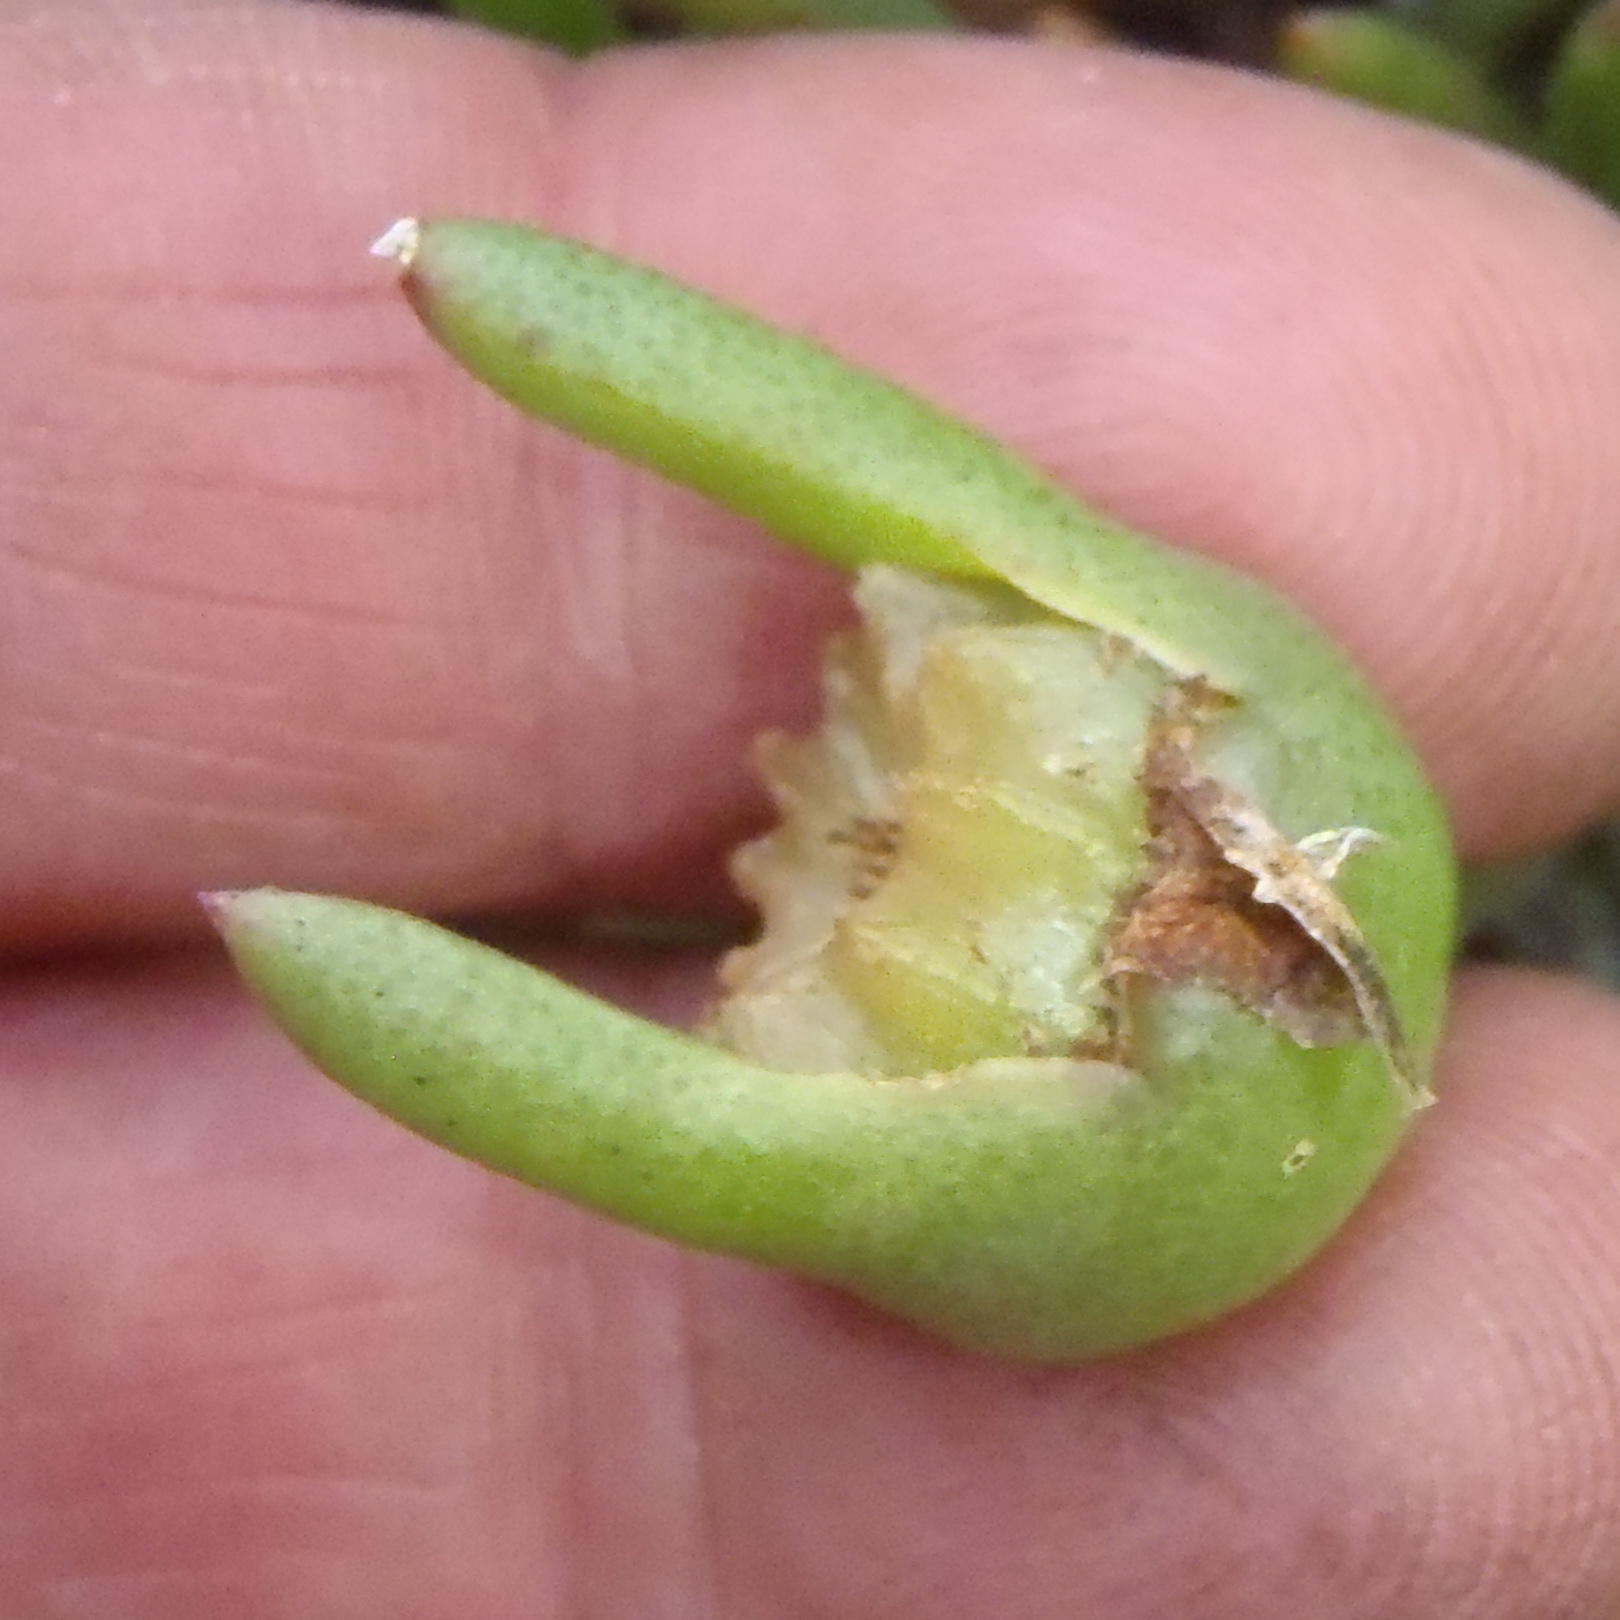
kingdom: Plantae
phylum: Tracheophyta
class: Magnoliopsida
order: Caryophyllales
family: Aizoaceae
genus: Jordaaniella
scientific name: Jordaaniella maritima
